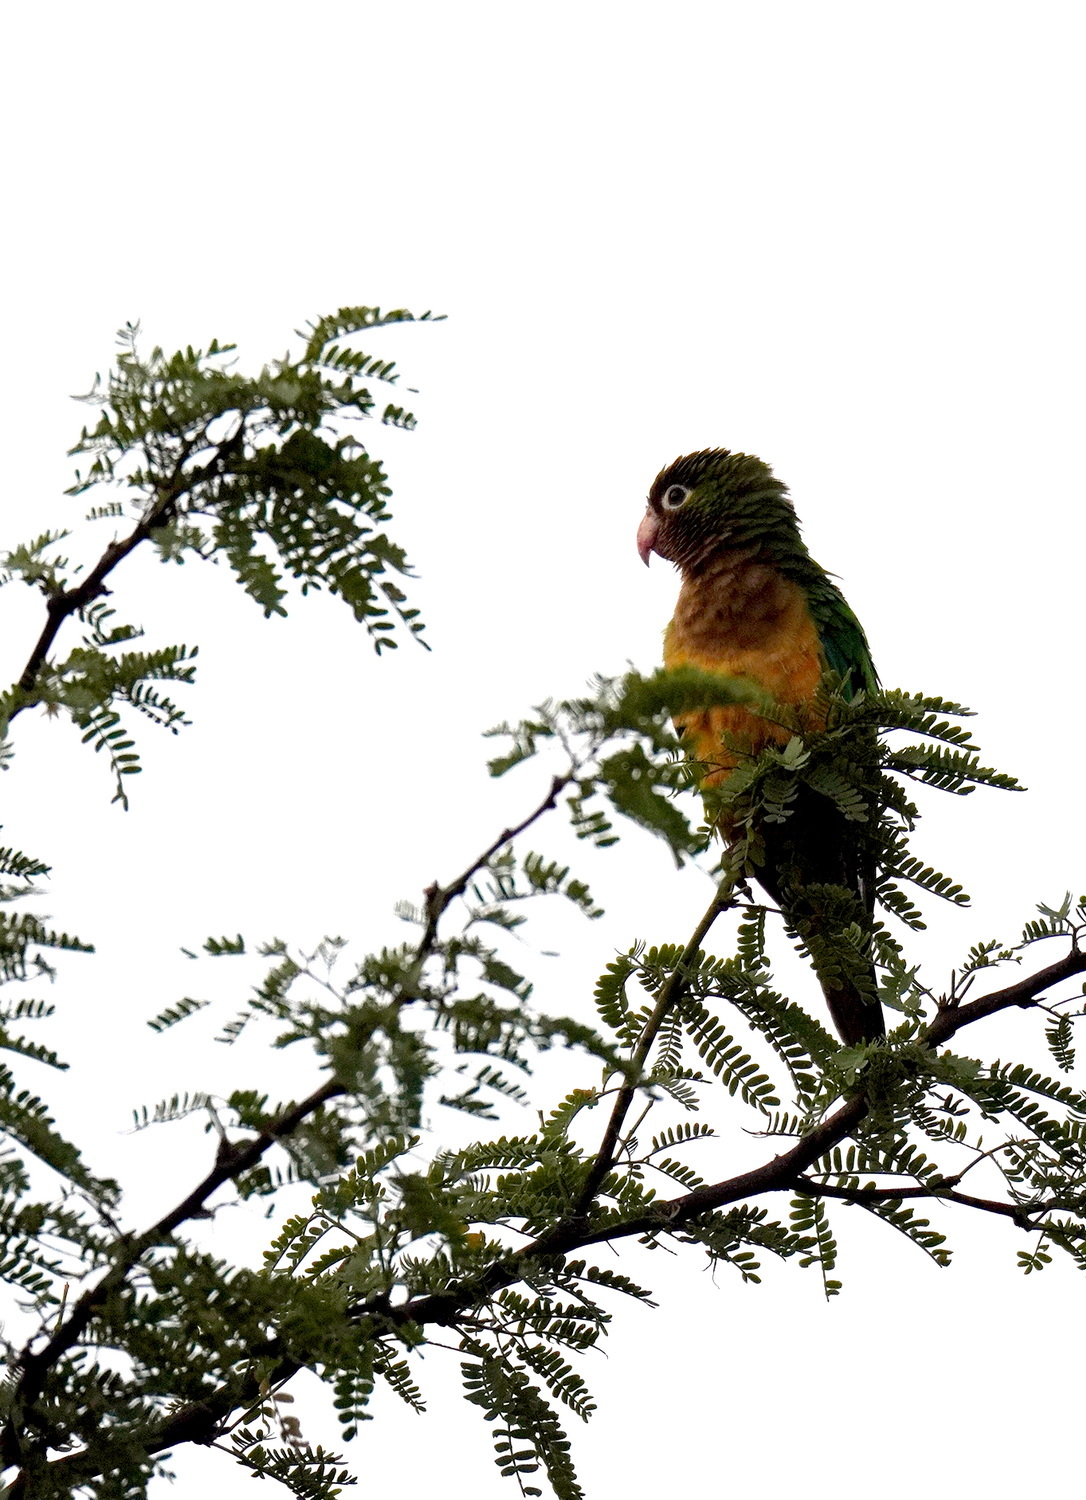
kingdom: Animalia
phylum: Chordata
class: Aves
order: Psittaciformes
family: Psittacidae
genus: Aratinga
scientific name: Aratinga cactorum
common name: Caatinga parakeet
